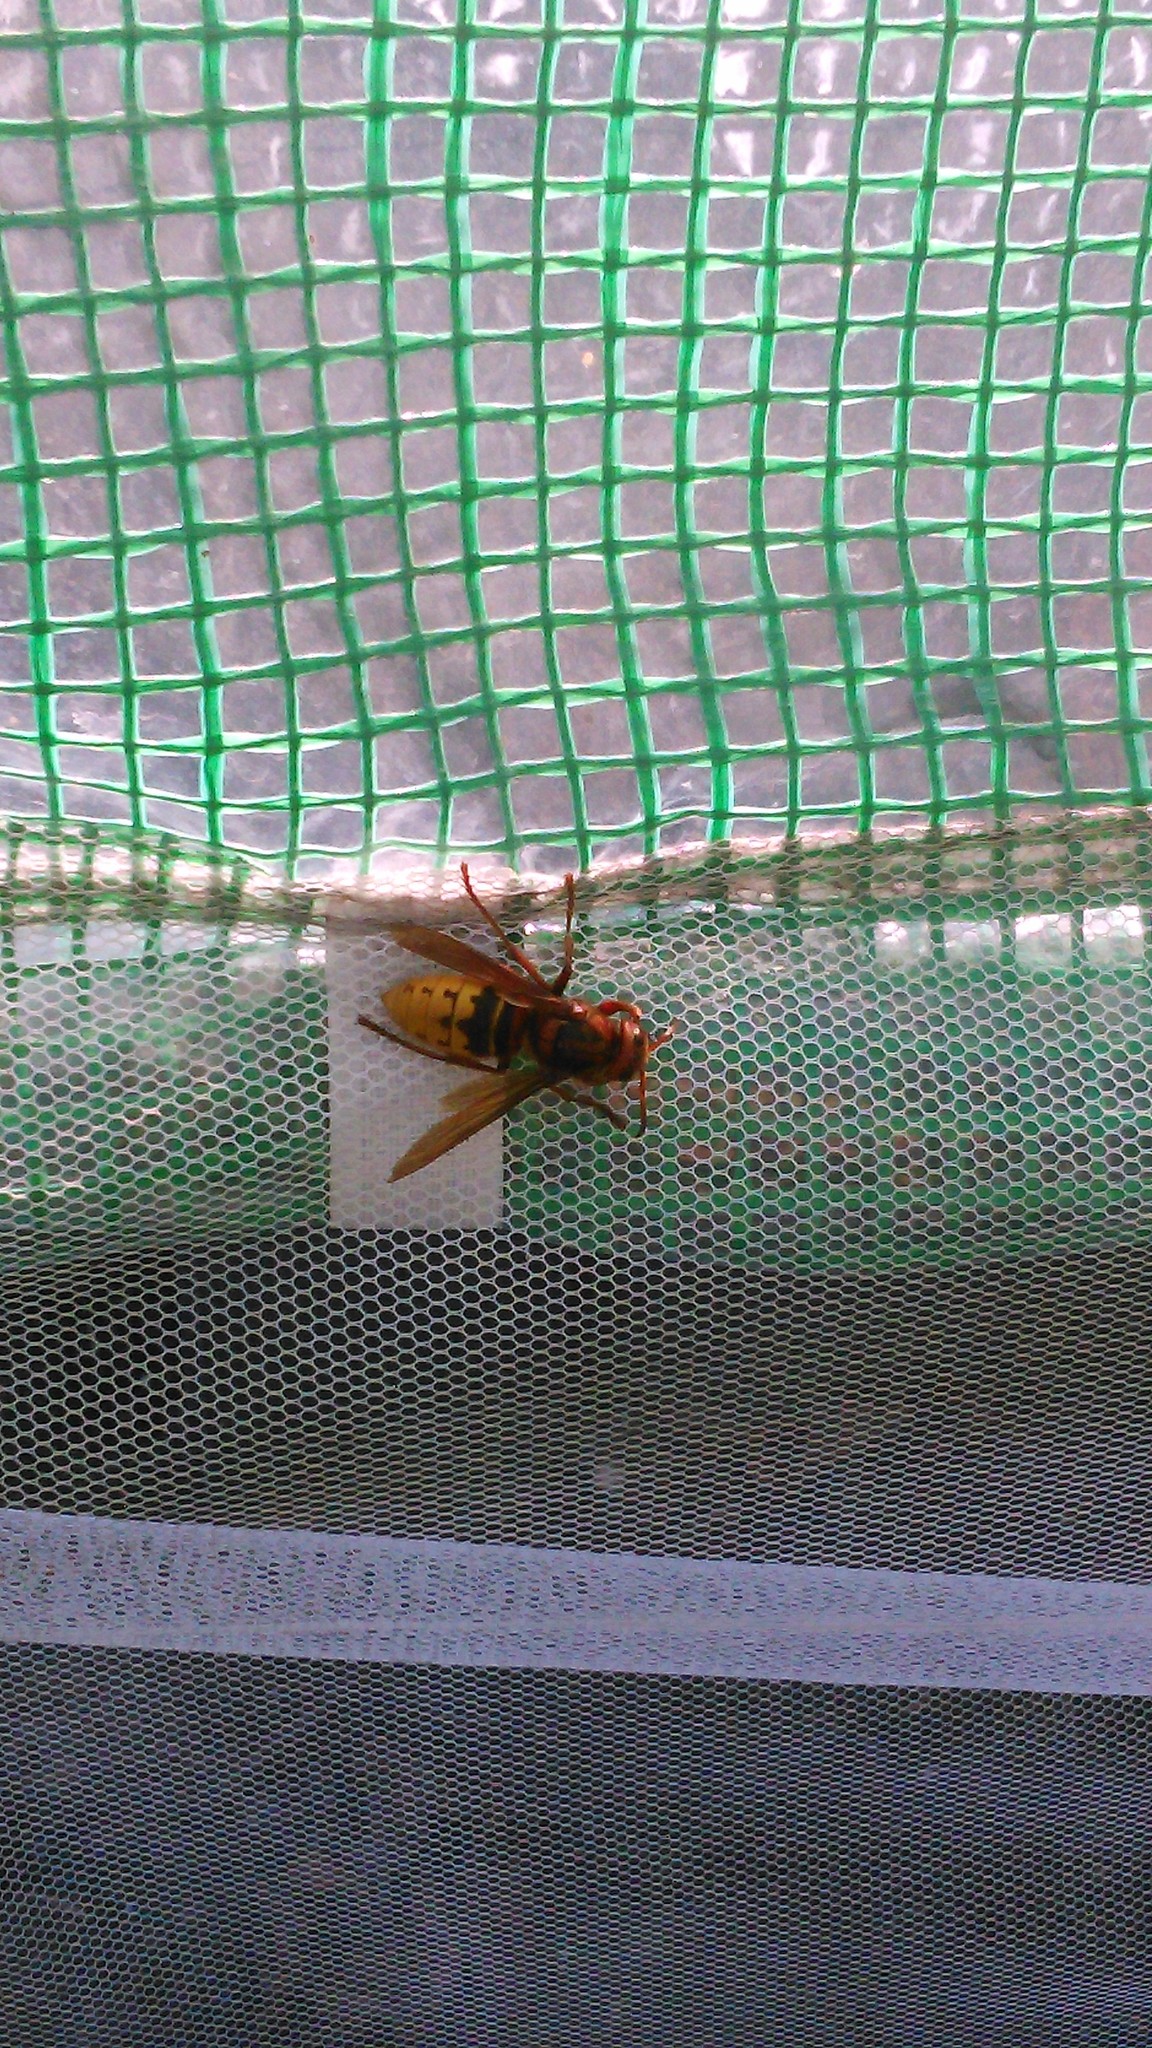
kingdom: Animalia
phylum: Arthropoda
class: Insecta
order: Hymenoptera
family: Vespidae
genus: Vespa
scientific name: Vespa crabro
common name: Hornet
